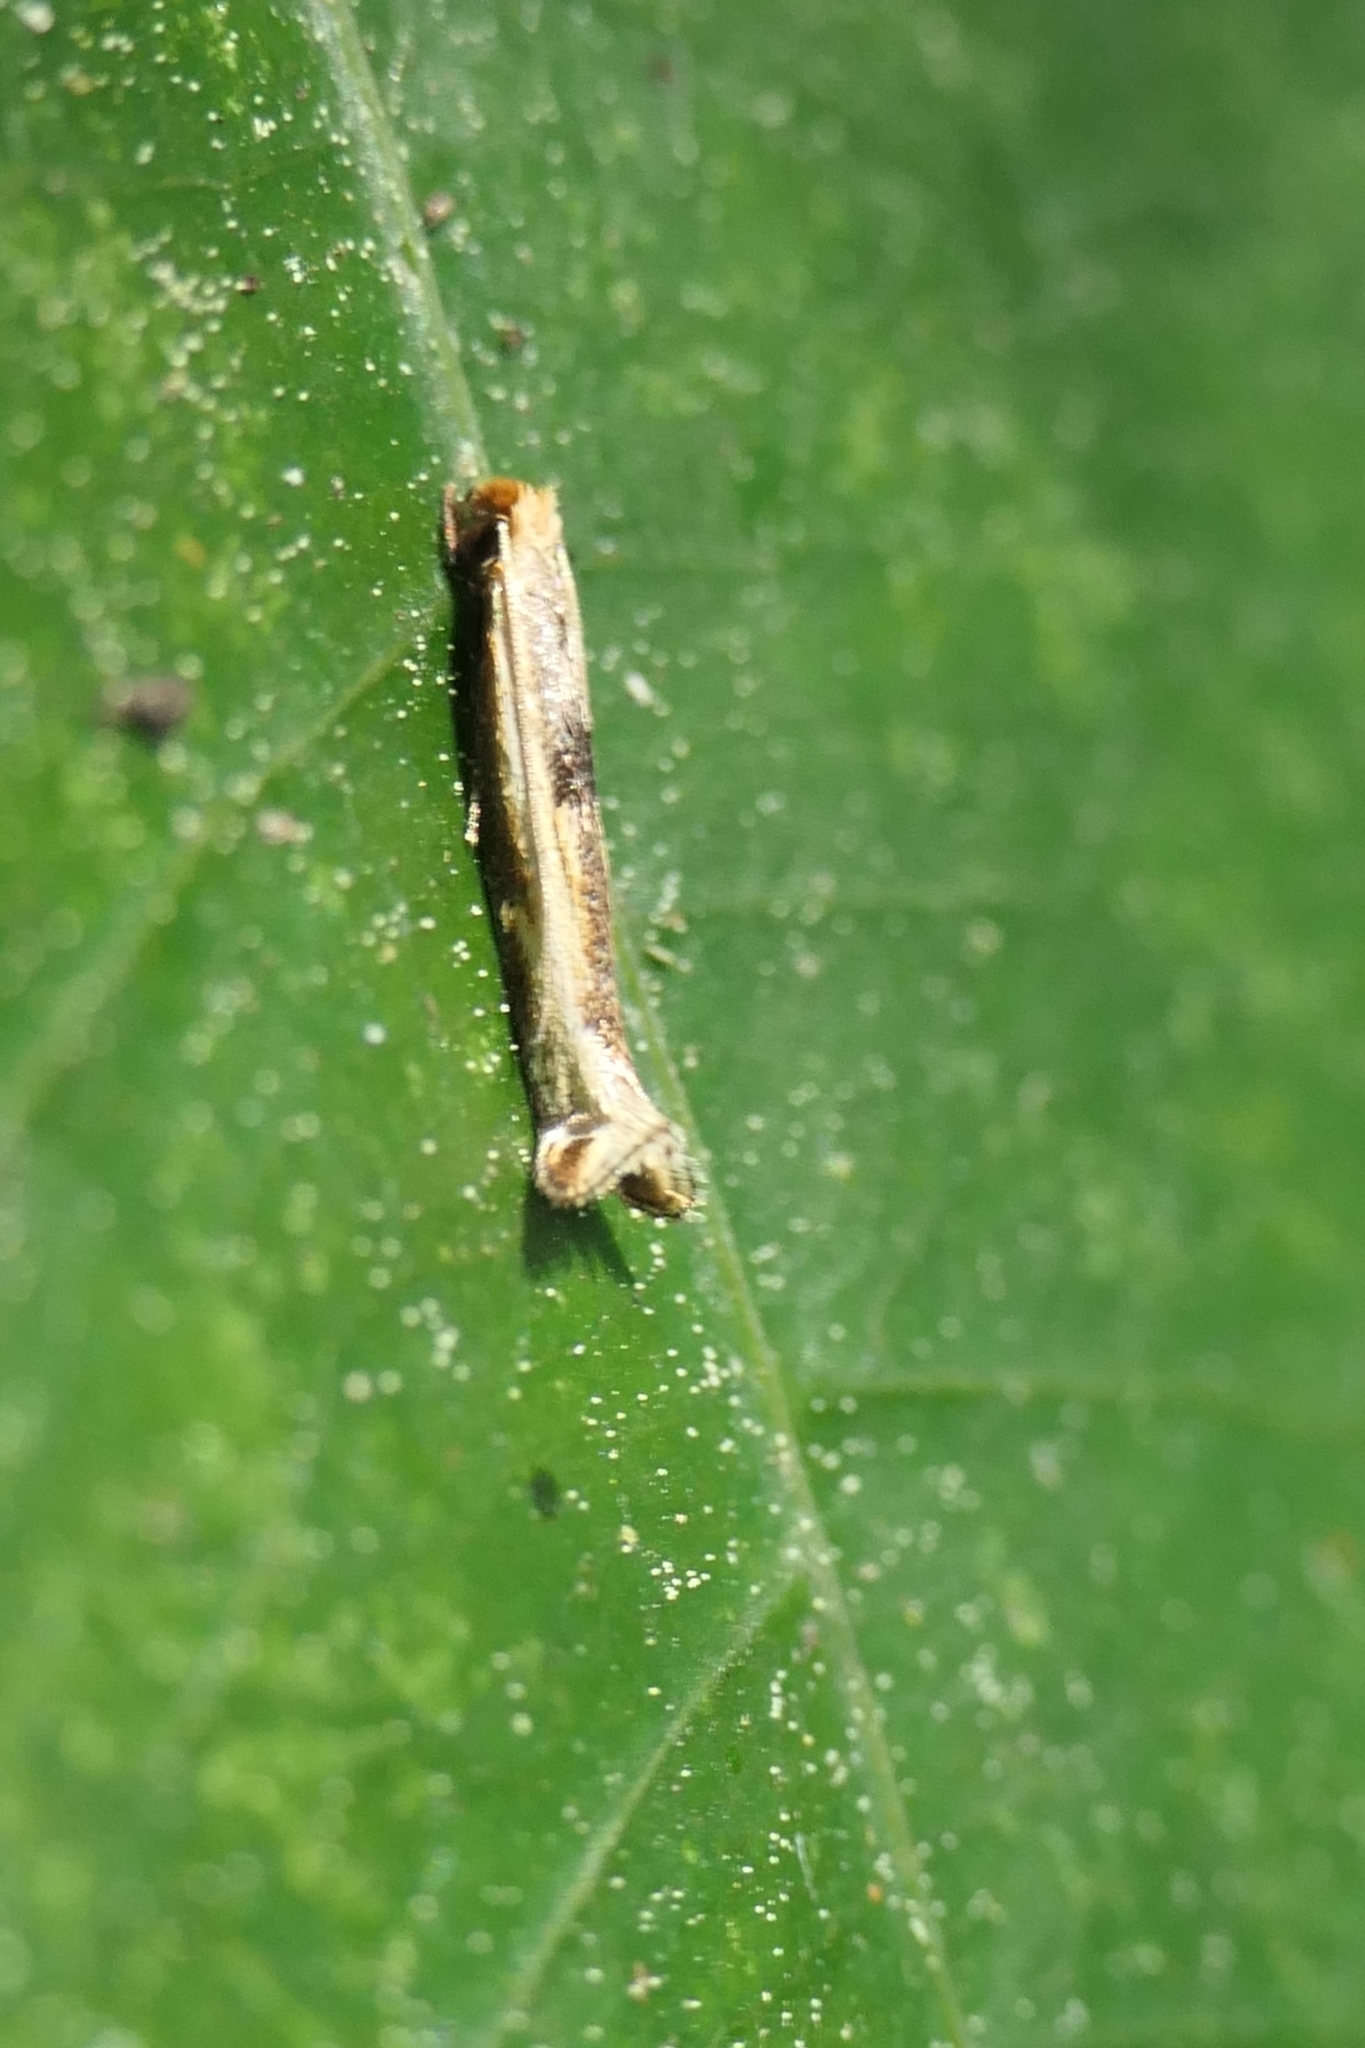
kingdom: Animalia
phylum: Arthropoda
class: Insecta
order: Lepidoptera
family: Tineidae
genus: Erechthias
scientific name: Erechthias charadrota
